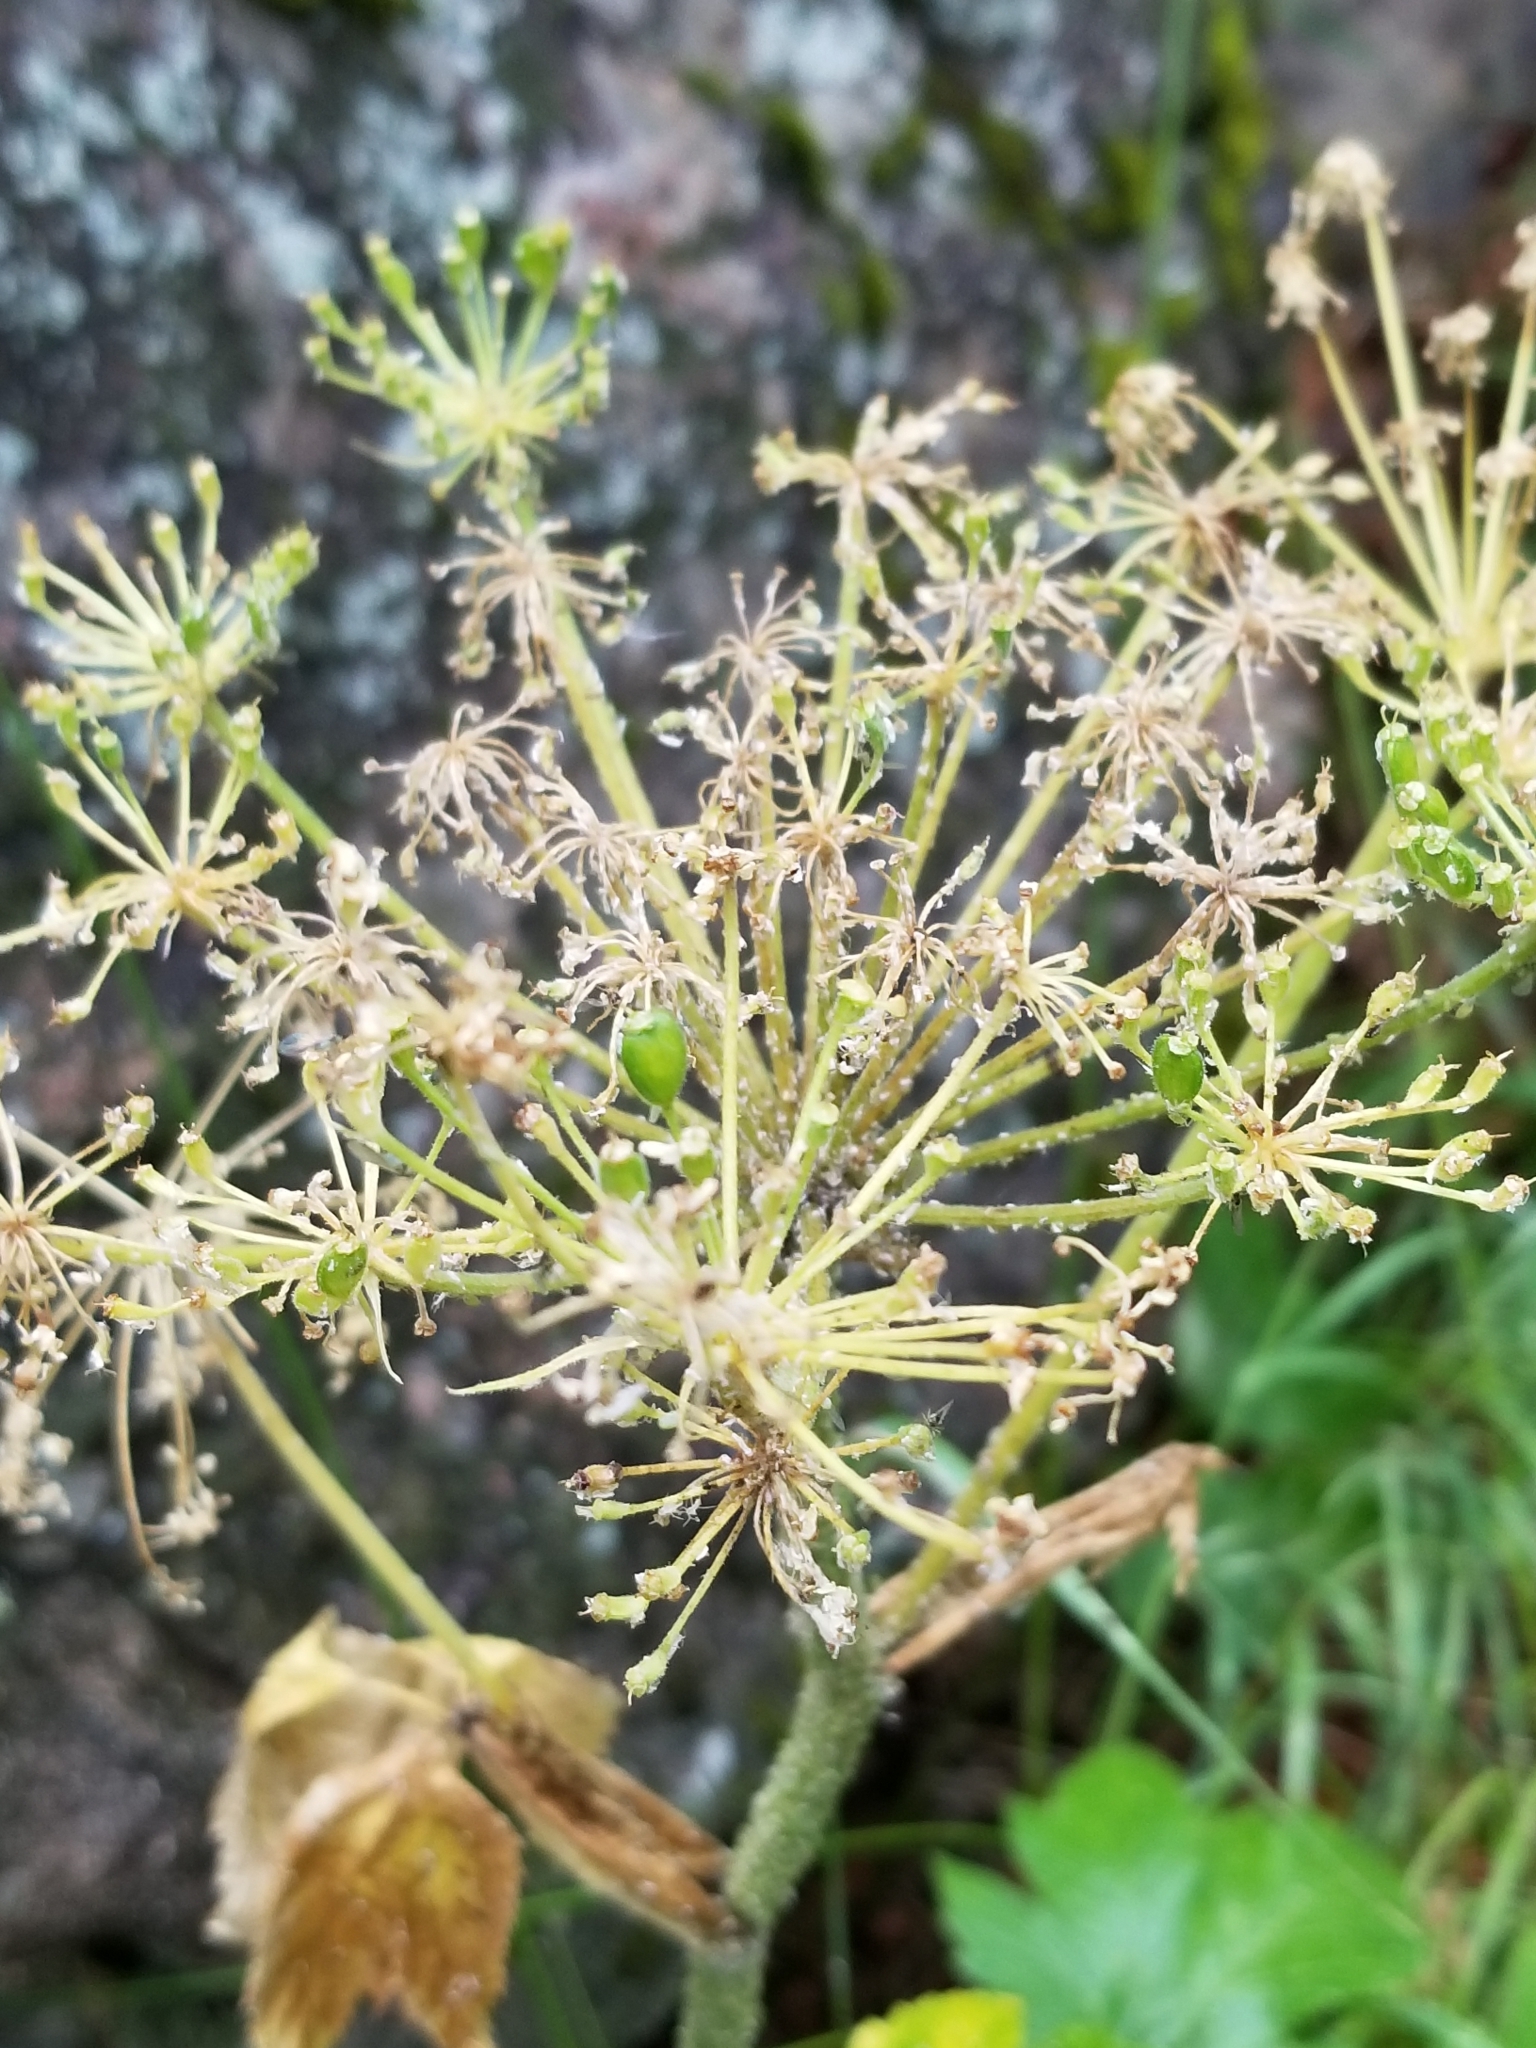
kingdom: Plantae
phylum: Tracheophyta
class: Magnoliopsida
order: Apiales
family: Apiaceae
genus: Heracleum
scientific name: Heracleum maximum
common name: American cow parsnip
